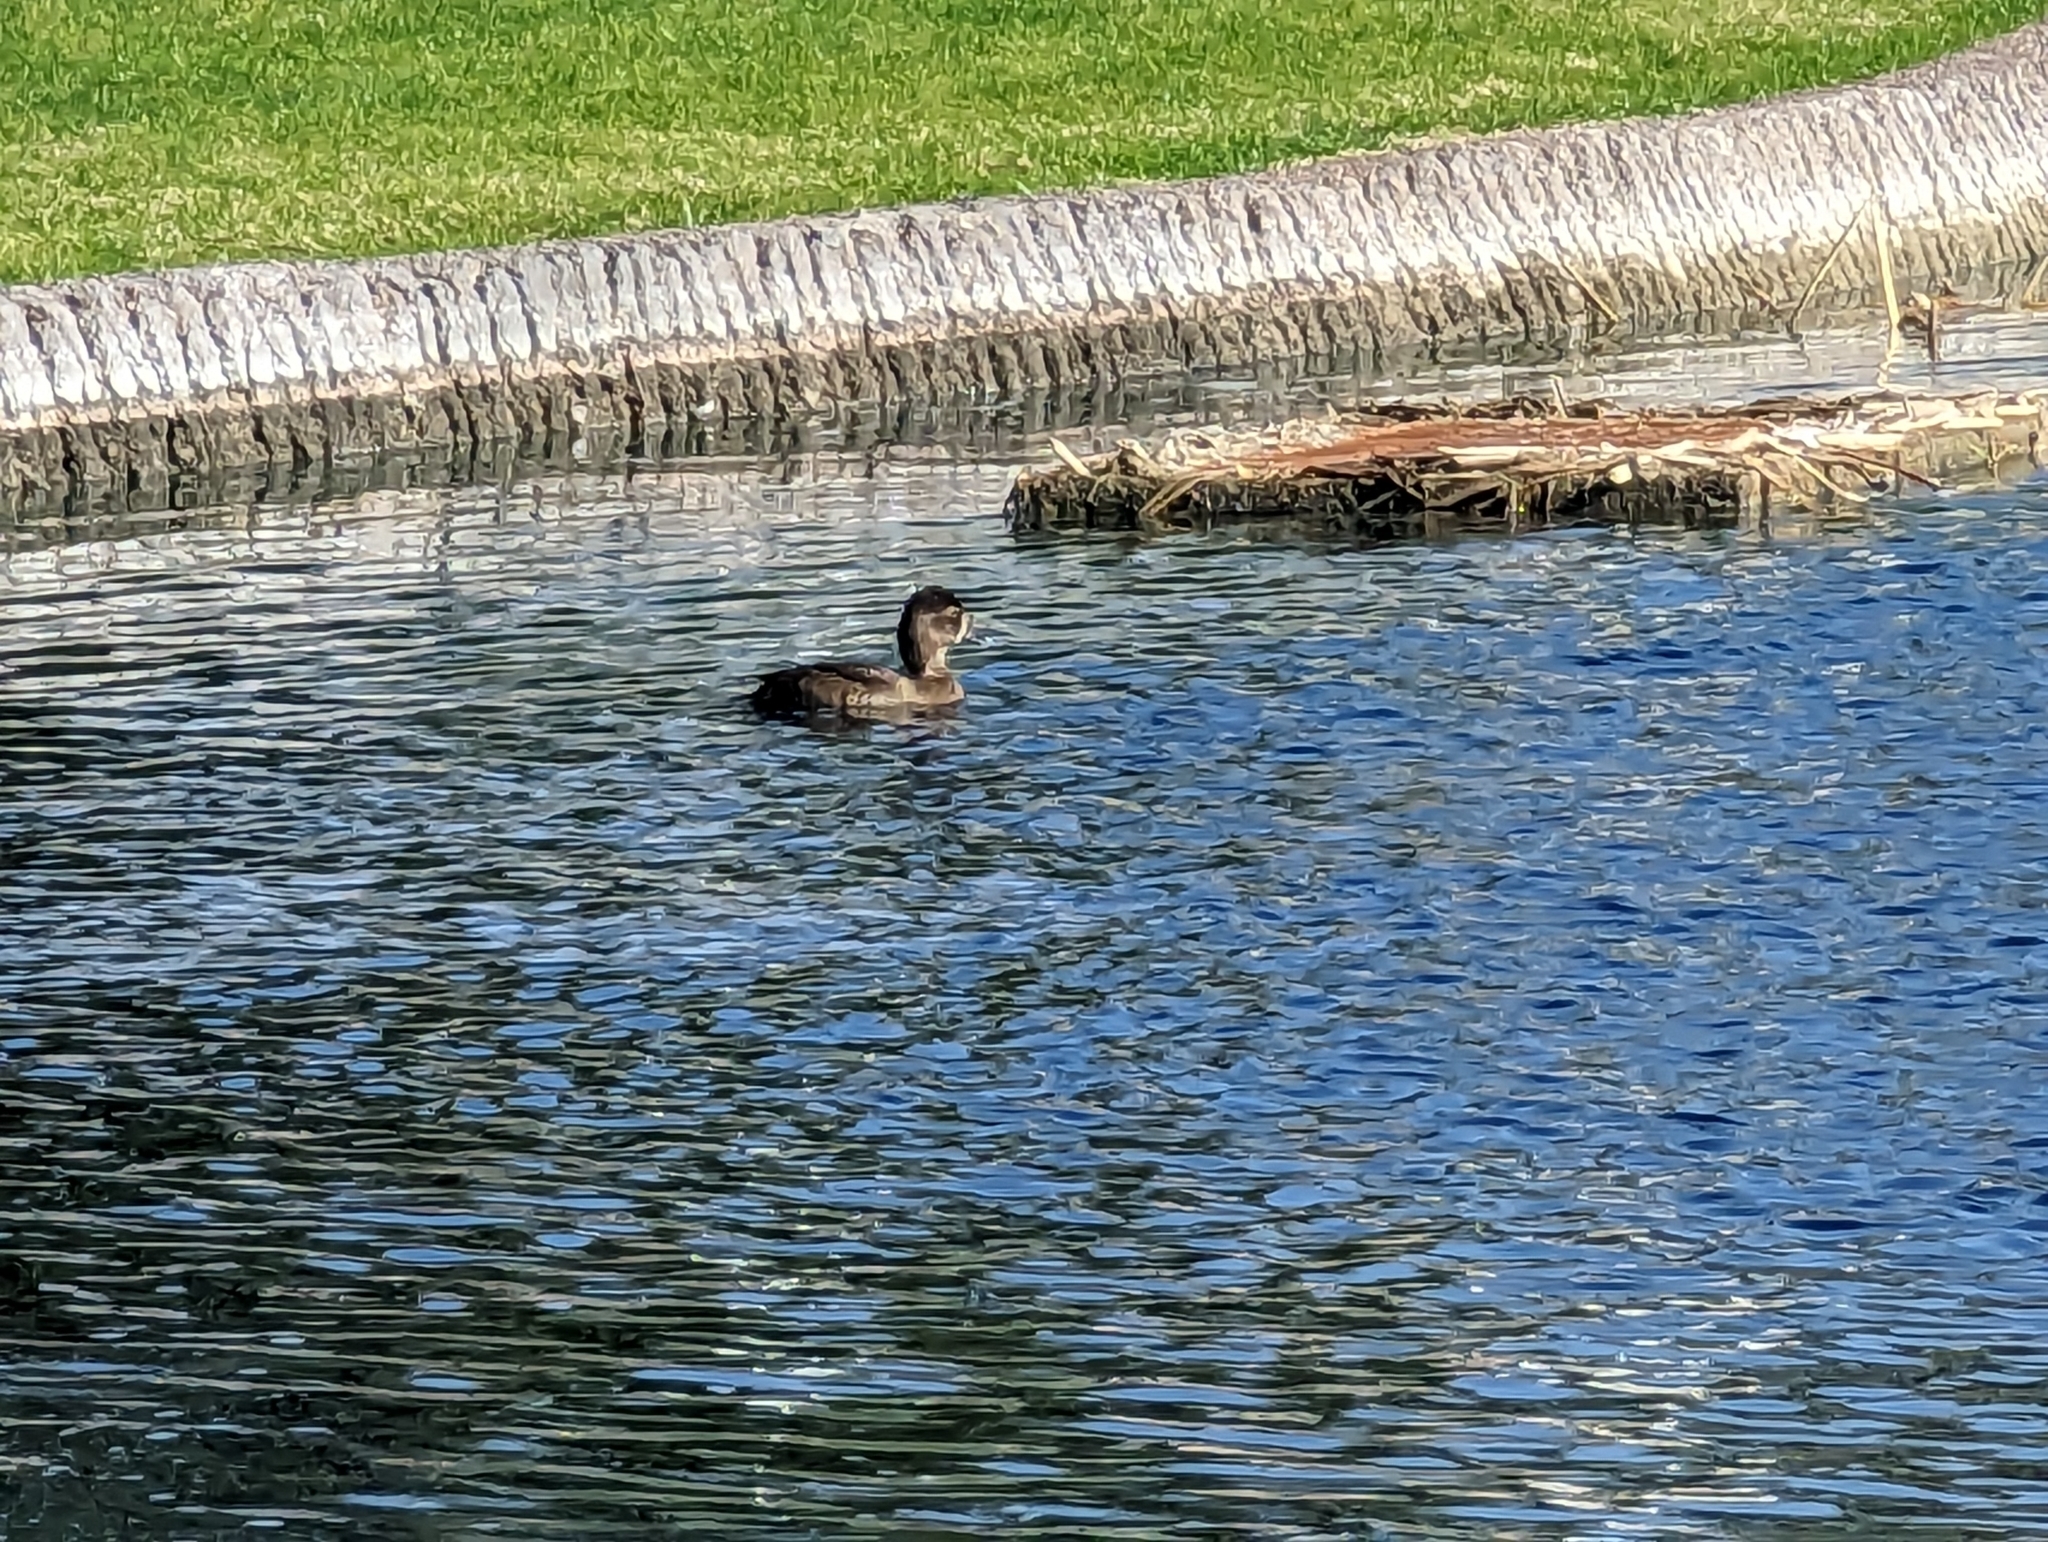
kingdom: Animalia
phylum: Chordata
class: Aves
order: Anseriformes
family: Anatidae
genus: Aythya
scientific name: Aythya collaris
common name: Ring-necked duck
